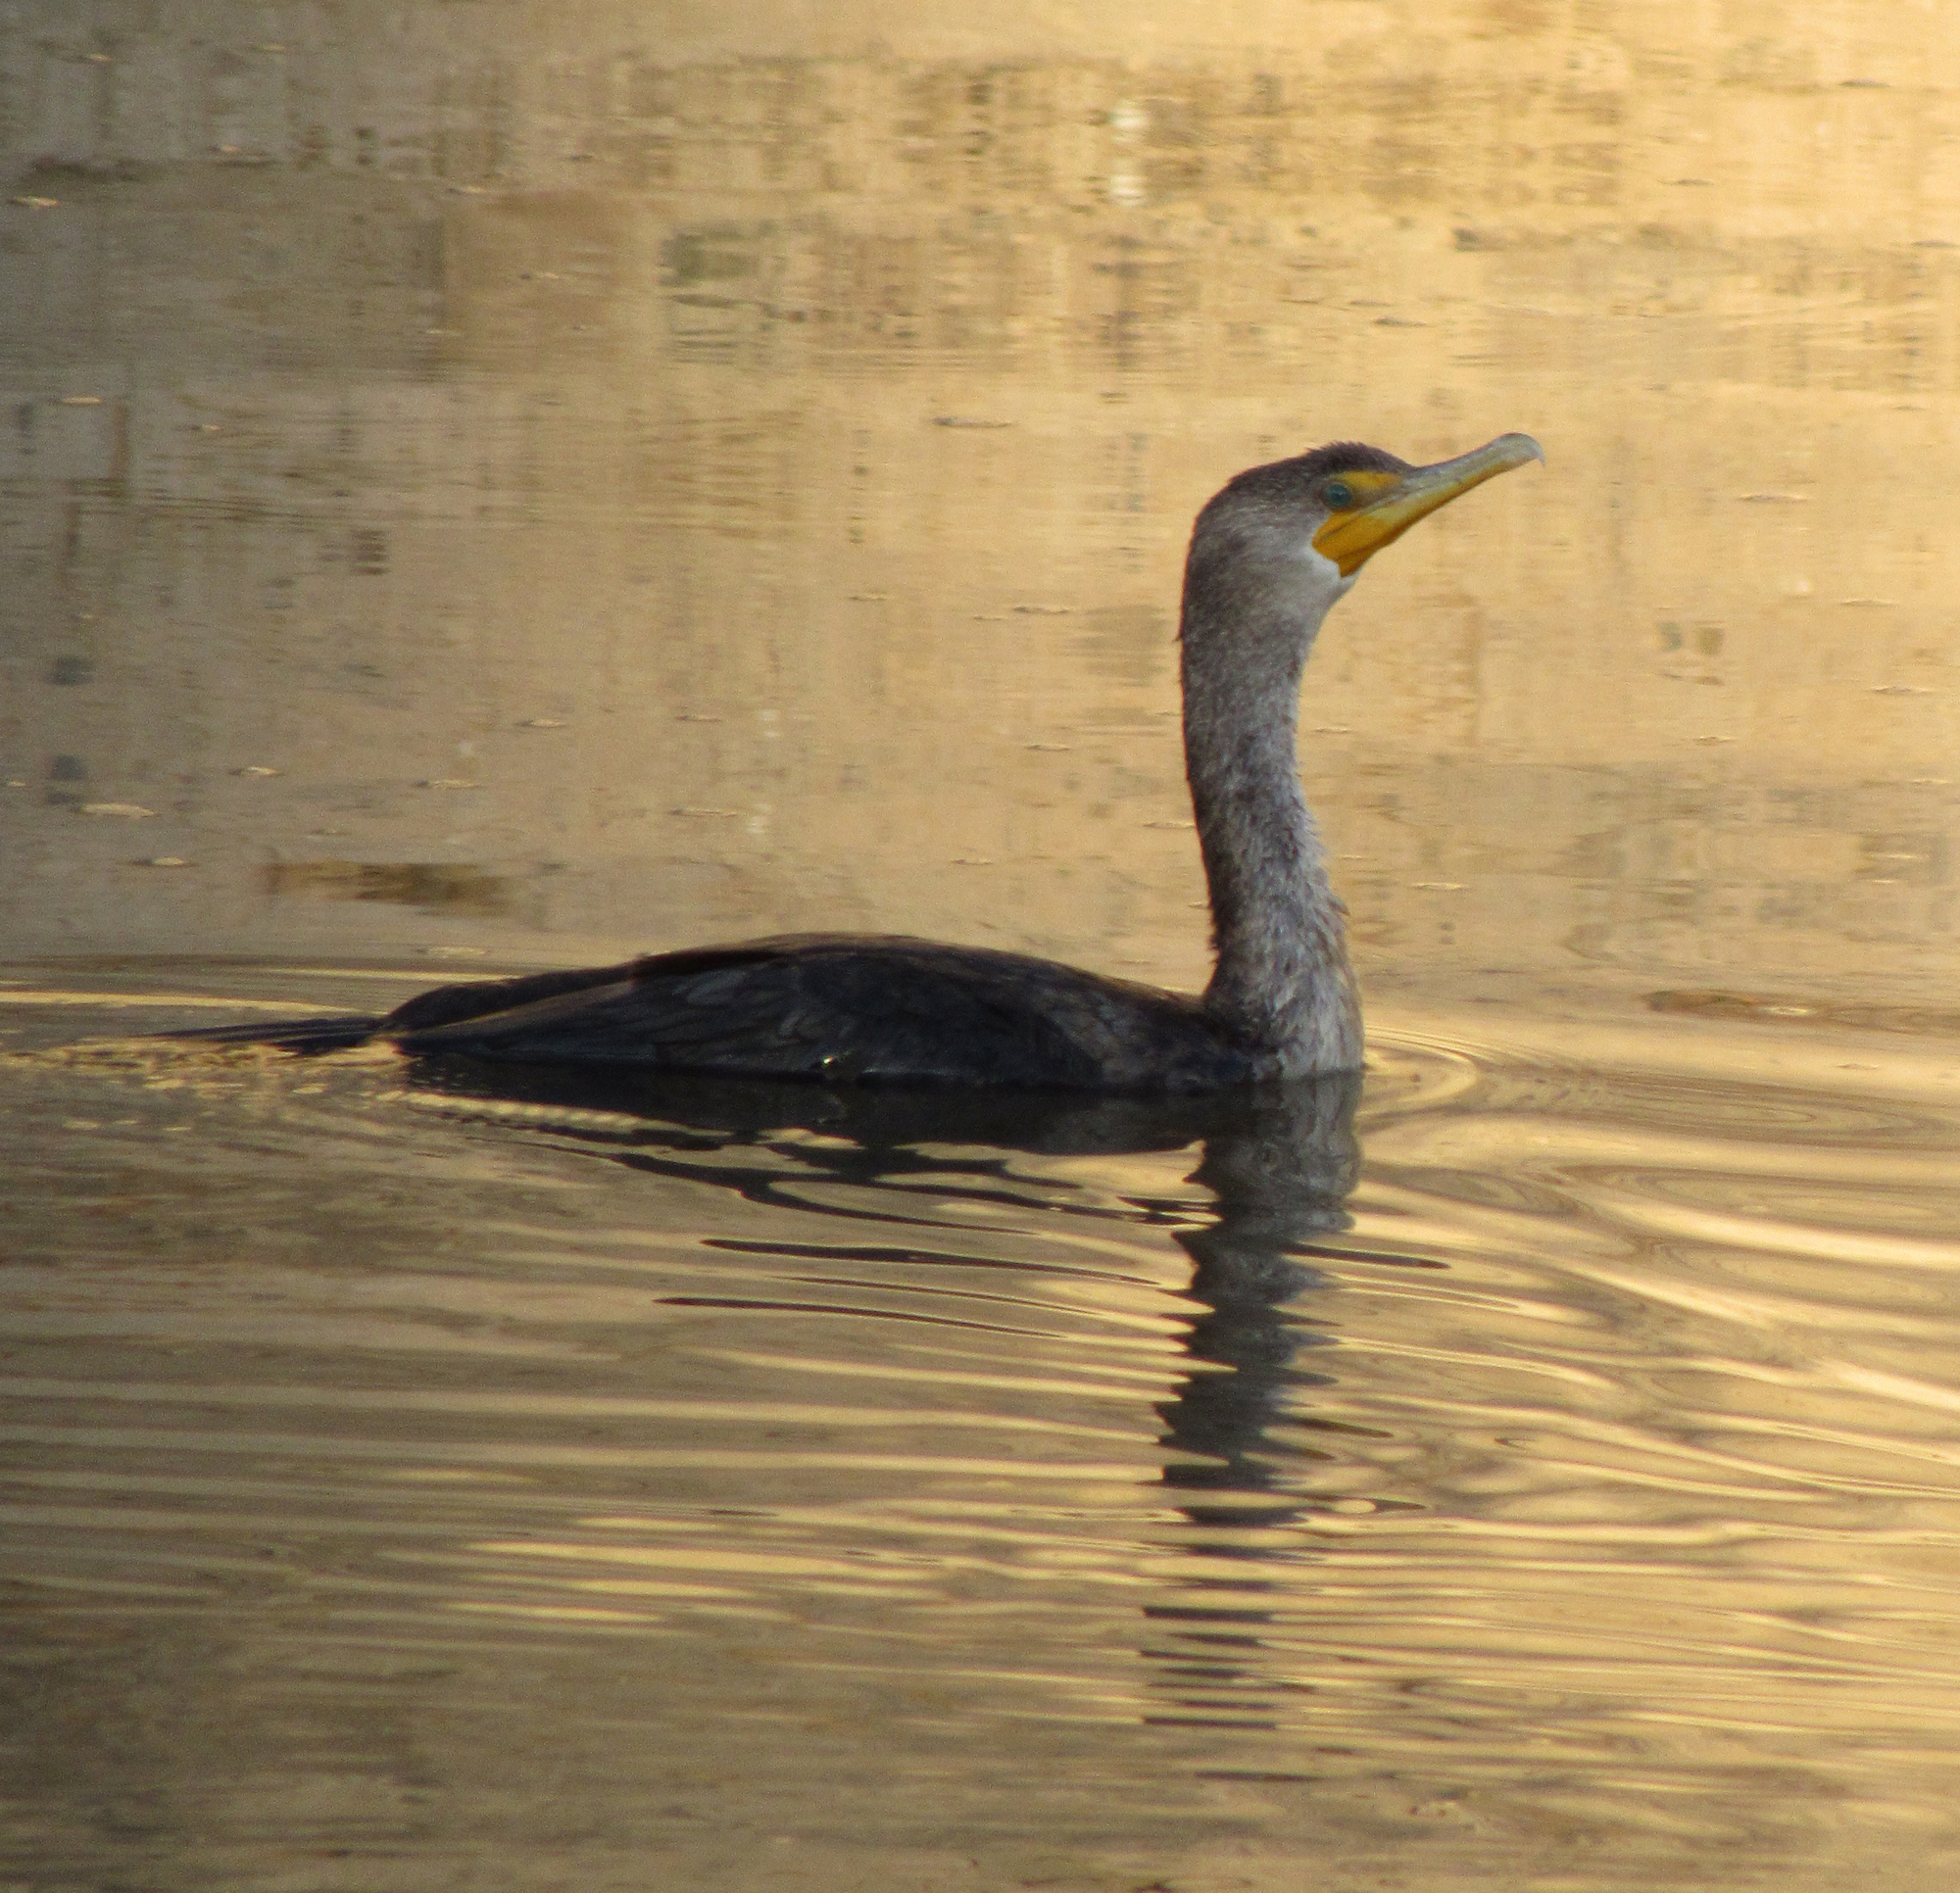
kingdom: Animalia
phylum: Chordata
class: Aves
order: Suliformes
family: Phalacrocoracidae
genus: Phalacrocorax
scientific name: Phalacrocorax auritus
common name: Double-crested cormorant
